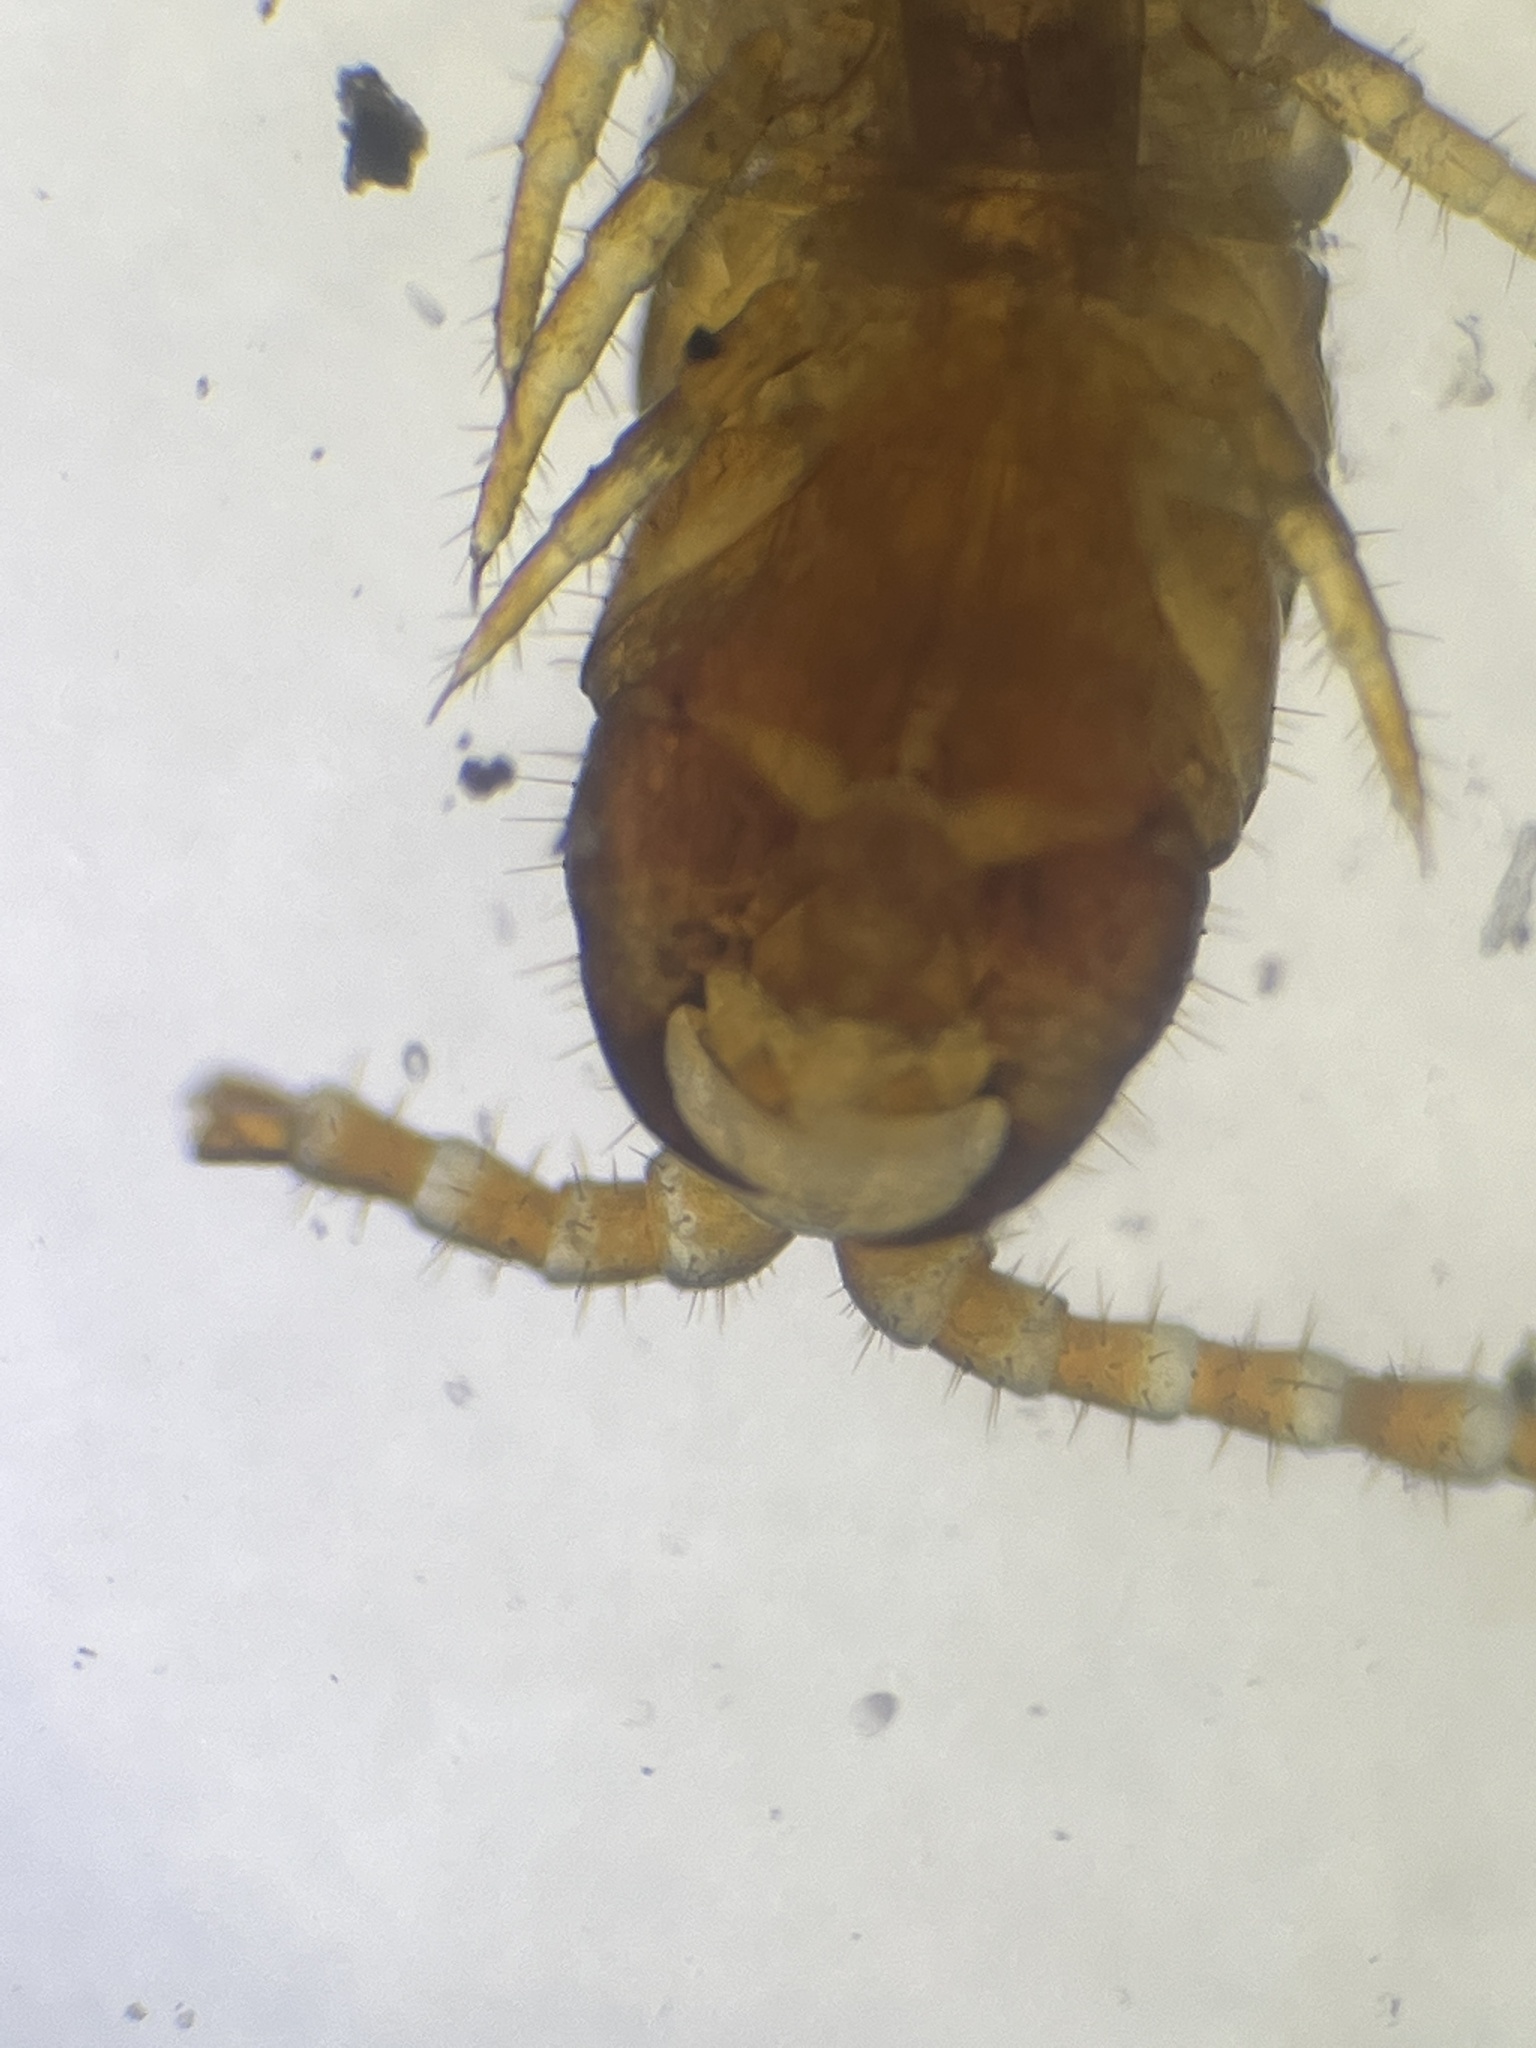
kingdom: Animalia
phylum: Arthropoda
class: Chilopoda
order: Geophilomorpha
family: Linotaeniidae
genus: Strigamia
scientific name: Strigamia maritima
